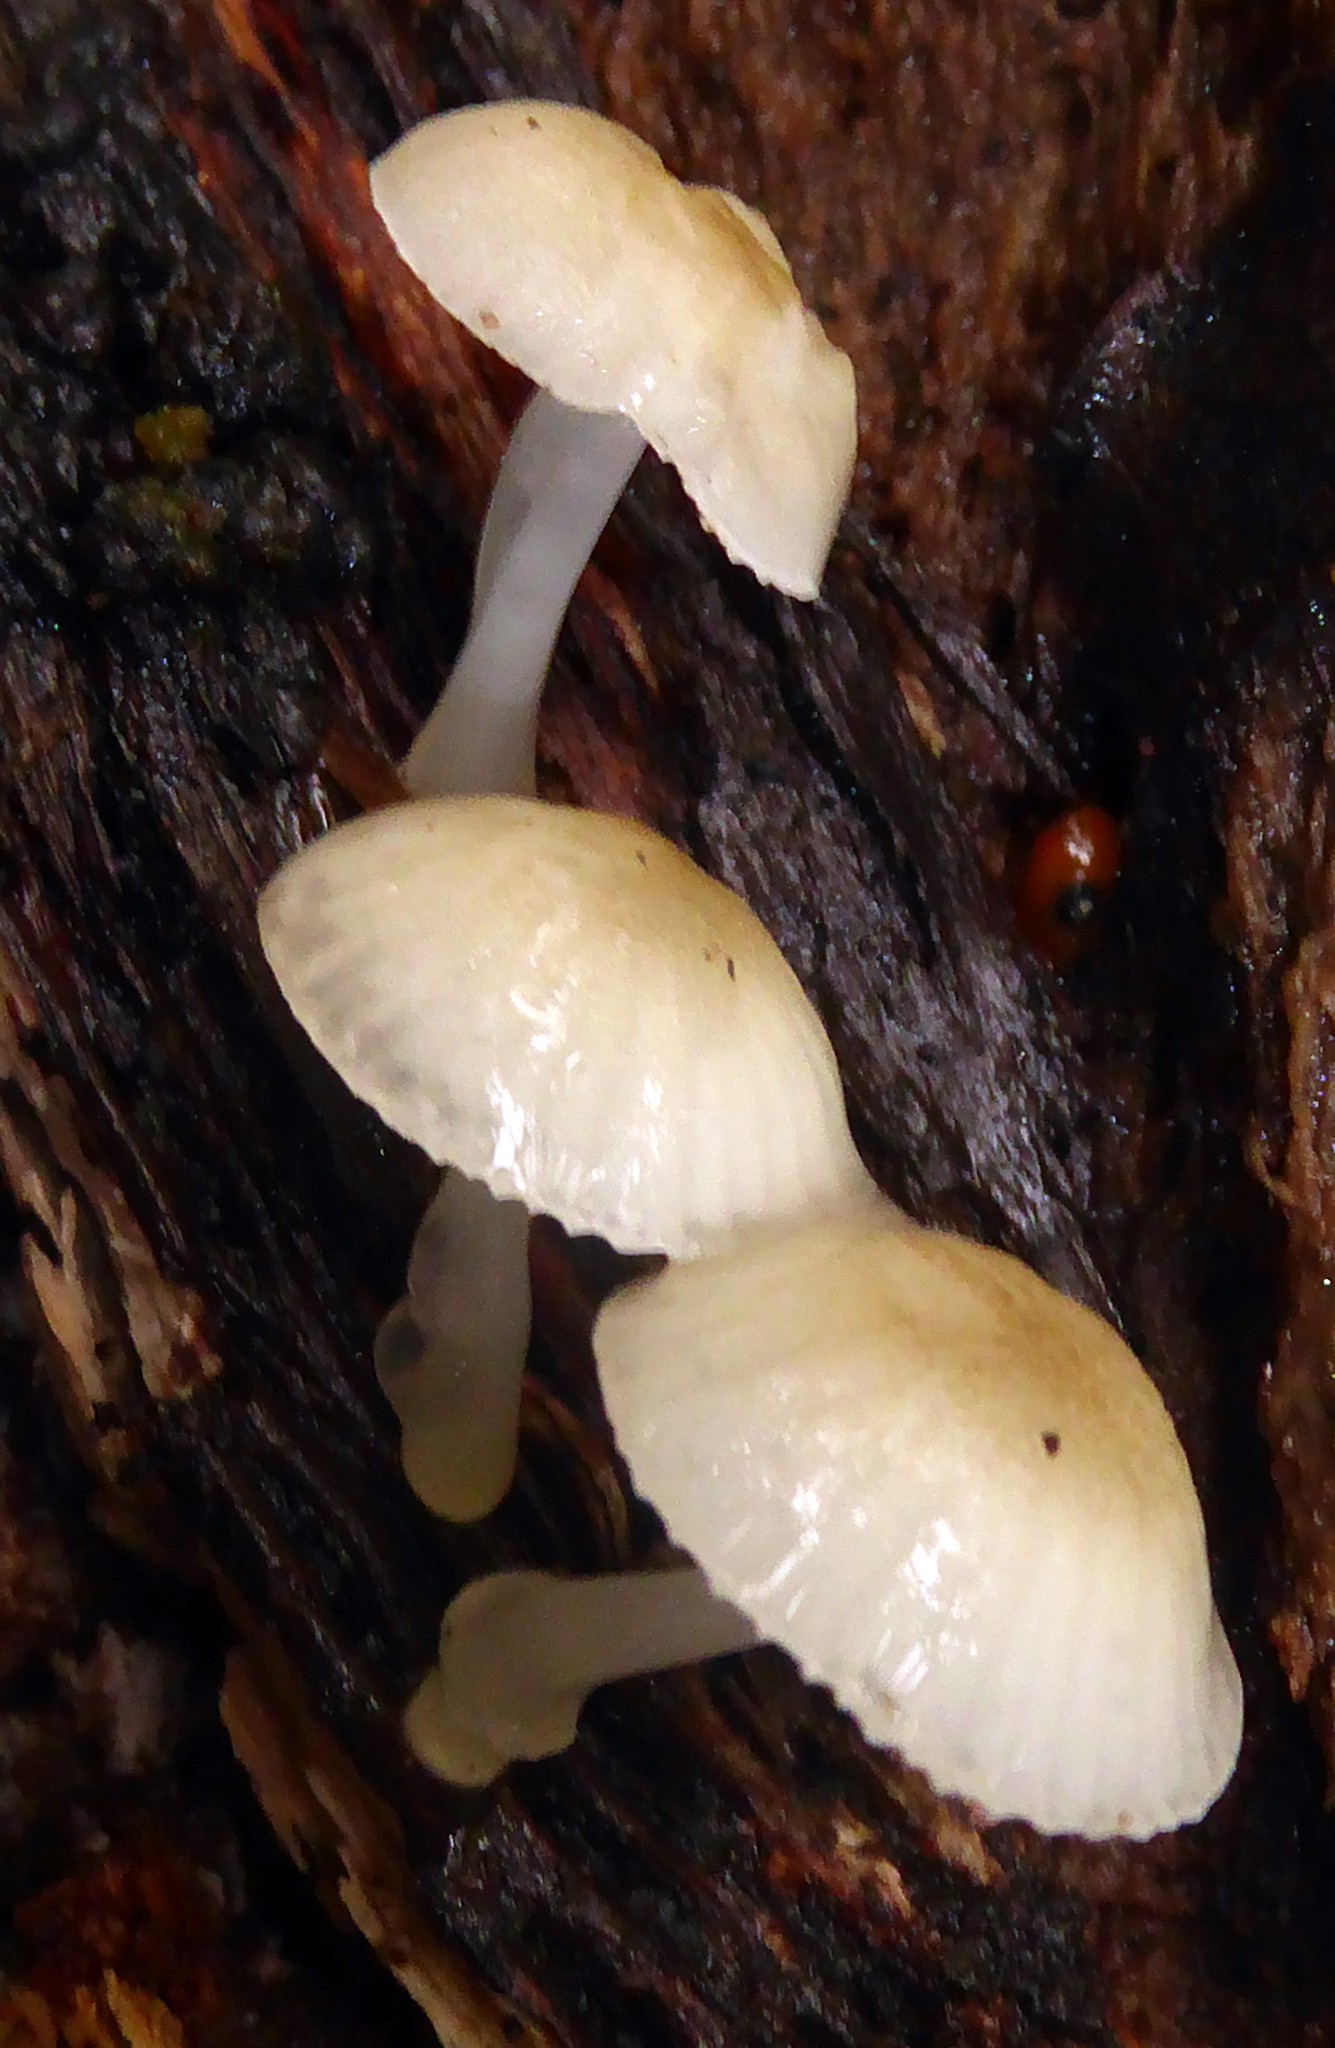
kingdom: Fungi
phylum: Basidiomycota
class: Agaricomycetes
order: Agaricales
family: Mycenaceae
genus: Roridomyces
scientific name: Roridomyces austrororidus
